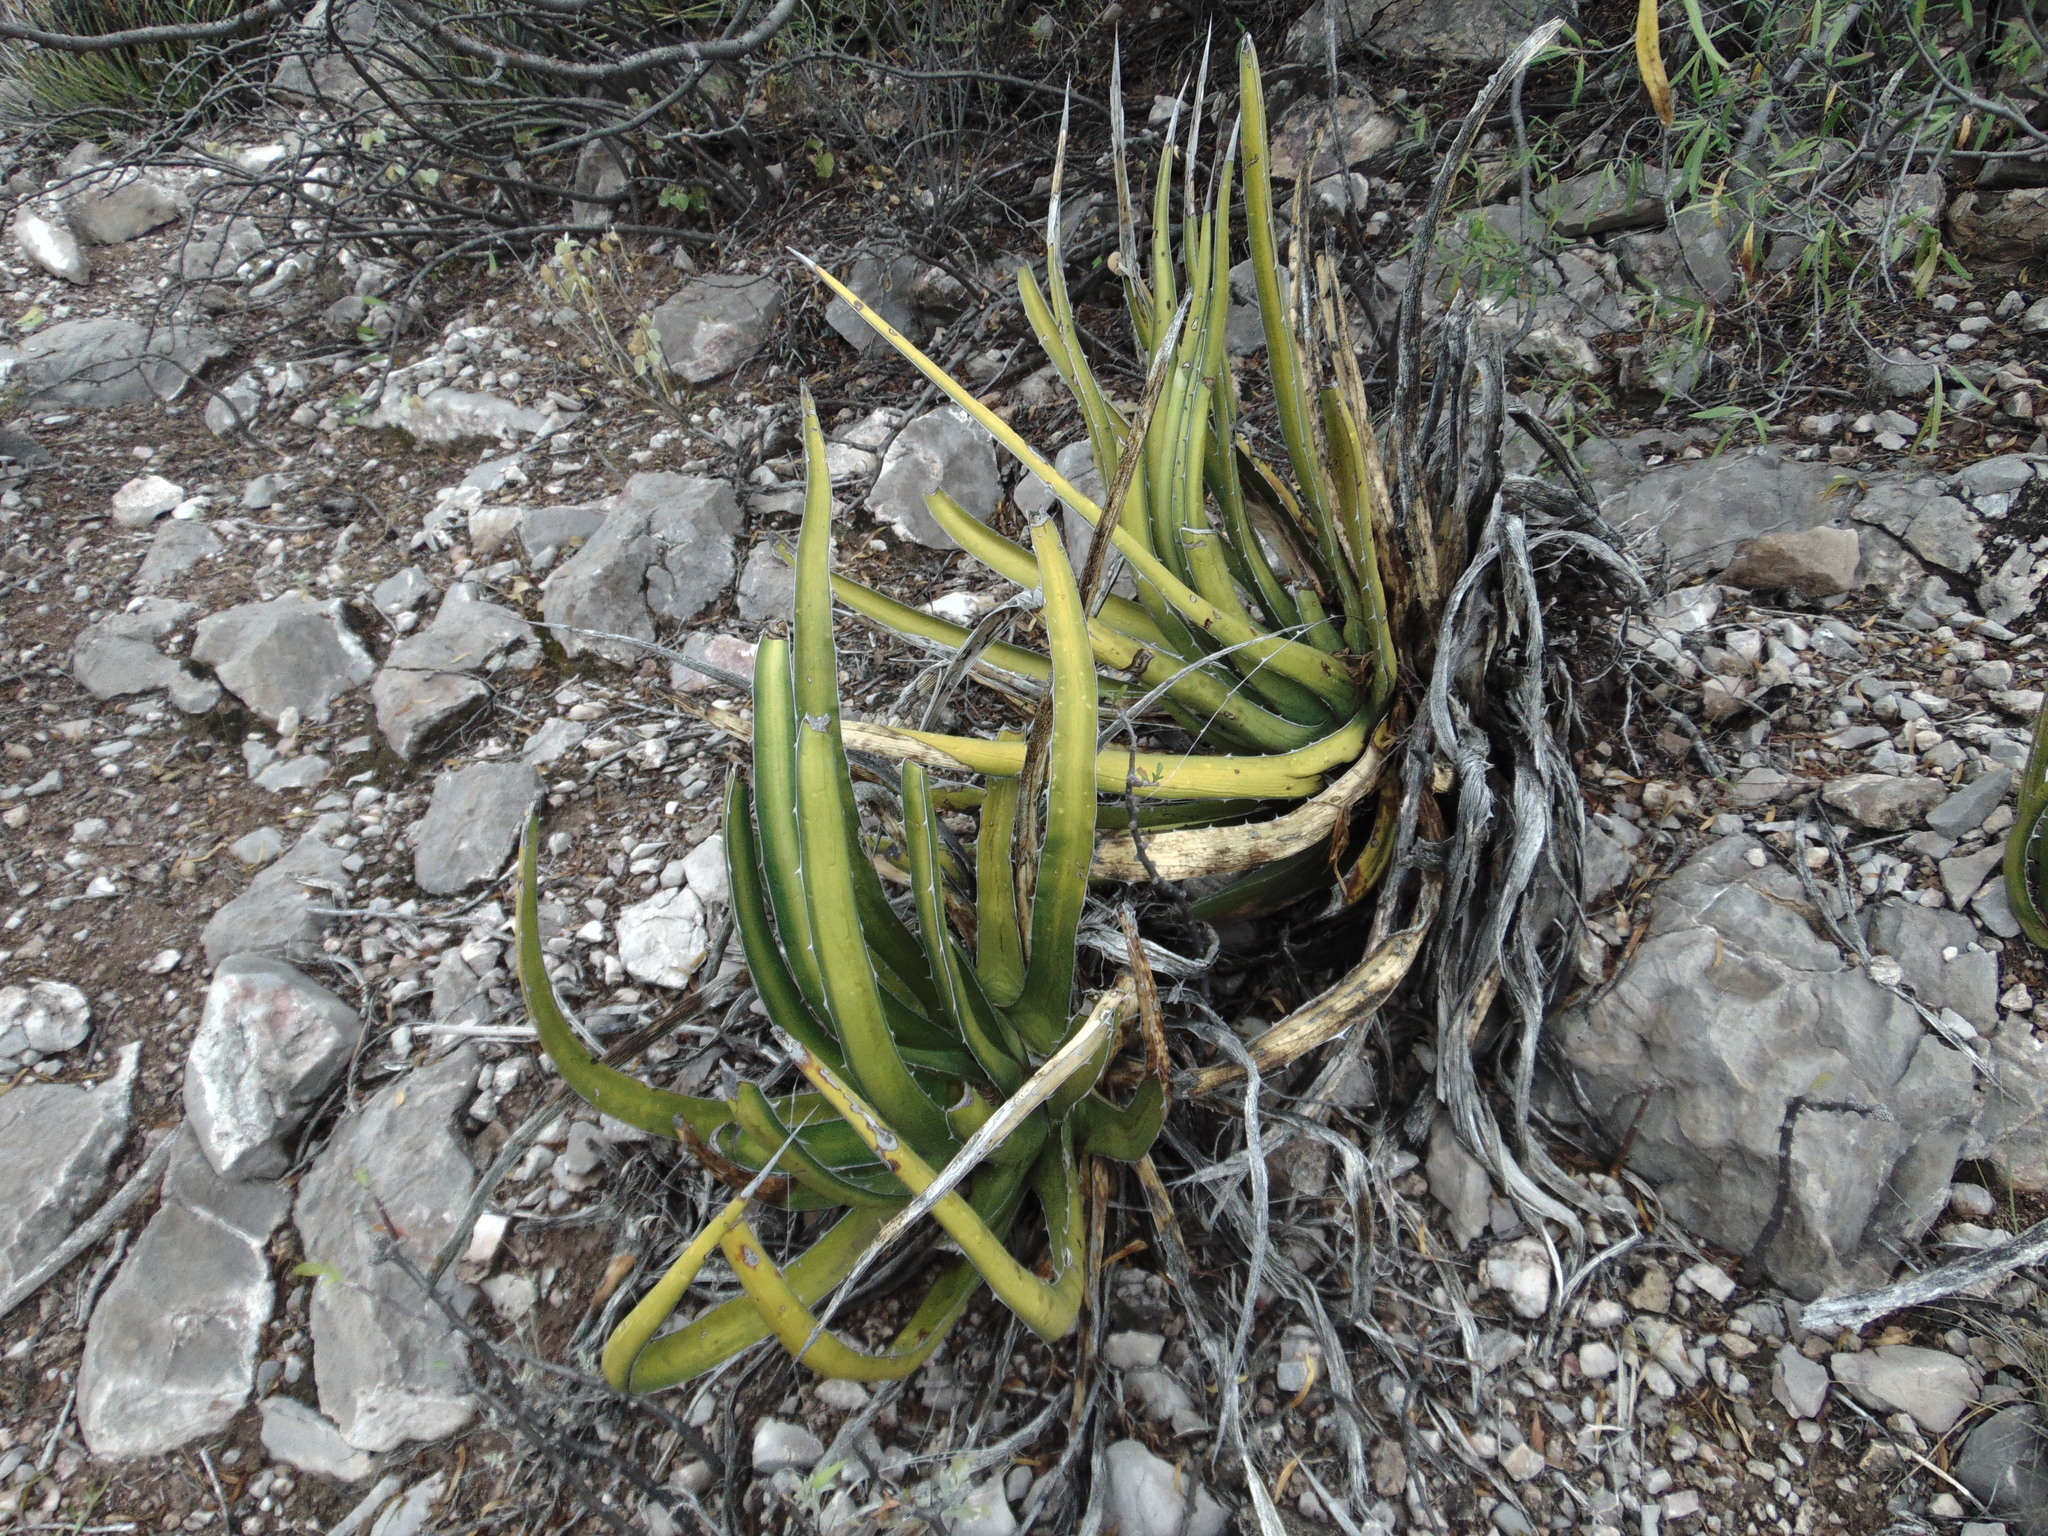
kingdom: Plantae
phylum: Tracheophyta
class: Liliopsida
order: Asparagales
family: Asparagaceae
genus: Agave
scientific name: Agave lechuguilla
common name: Lecheguilla agave
